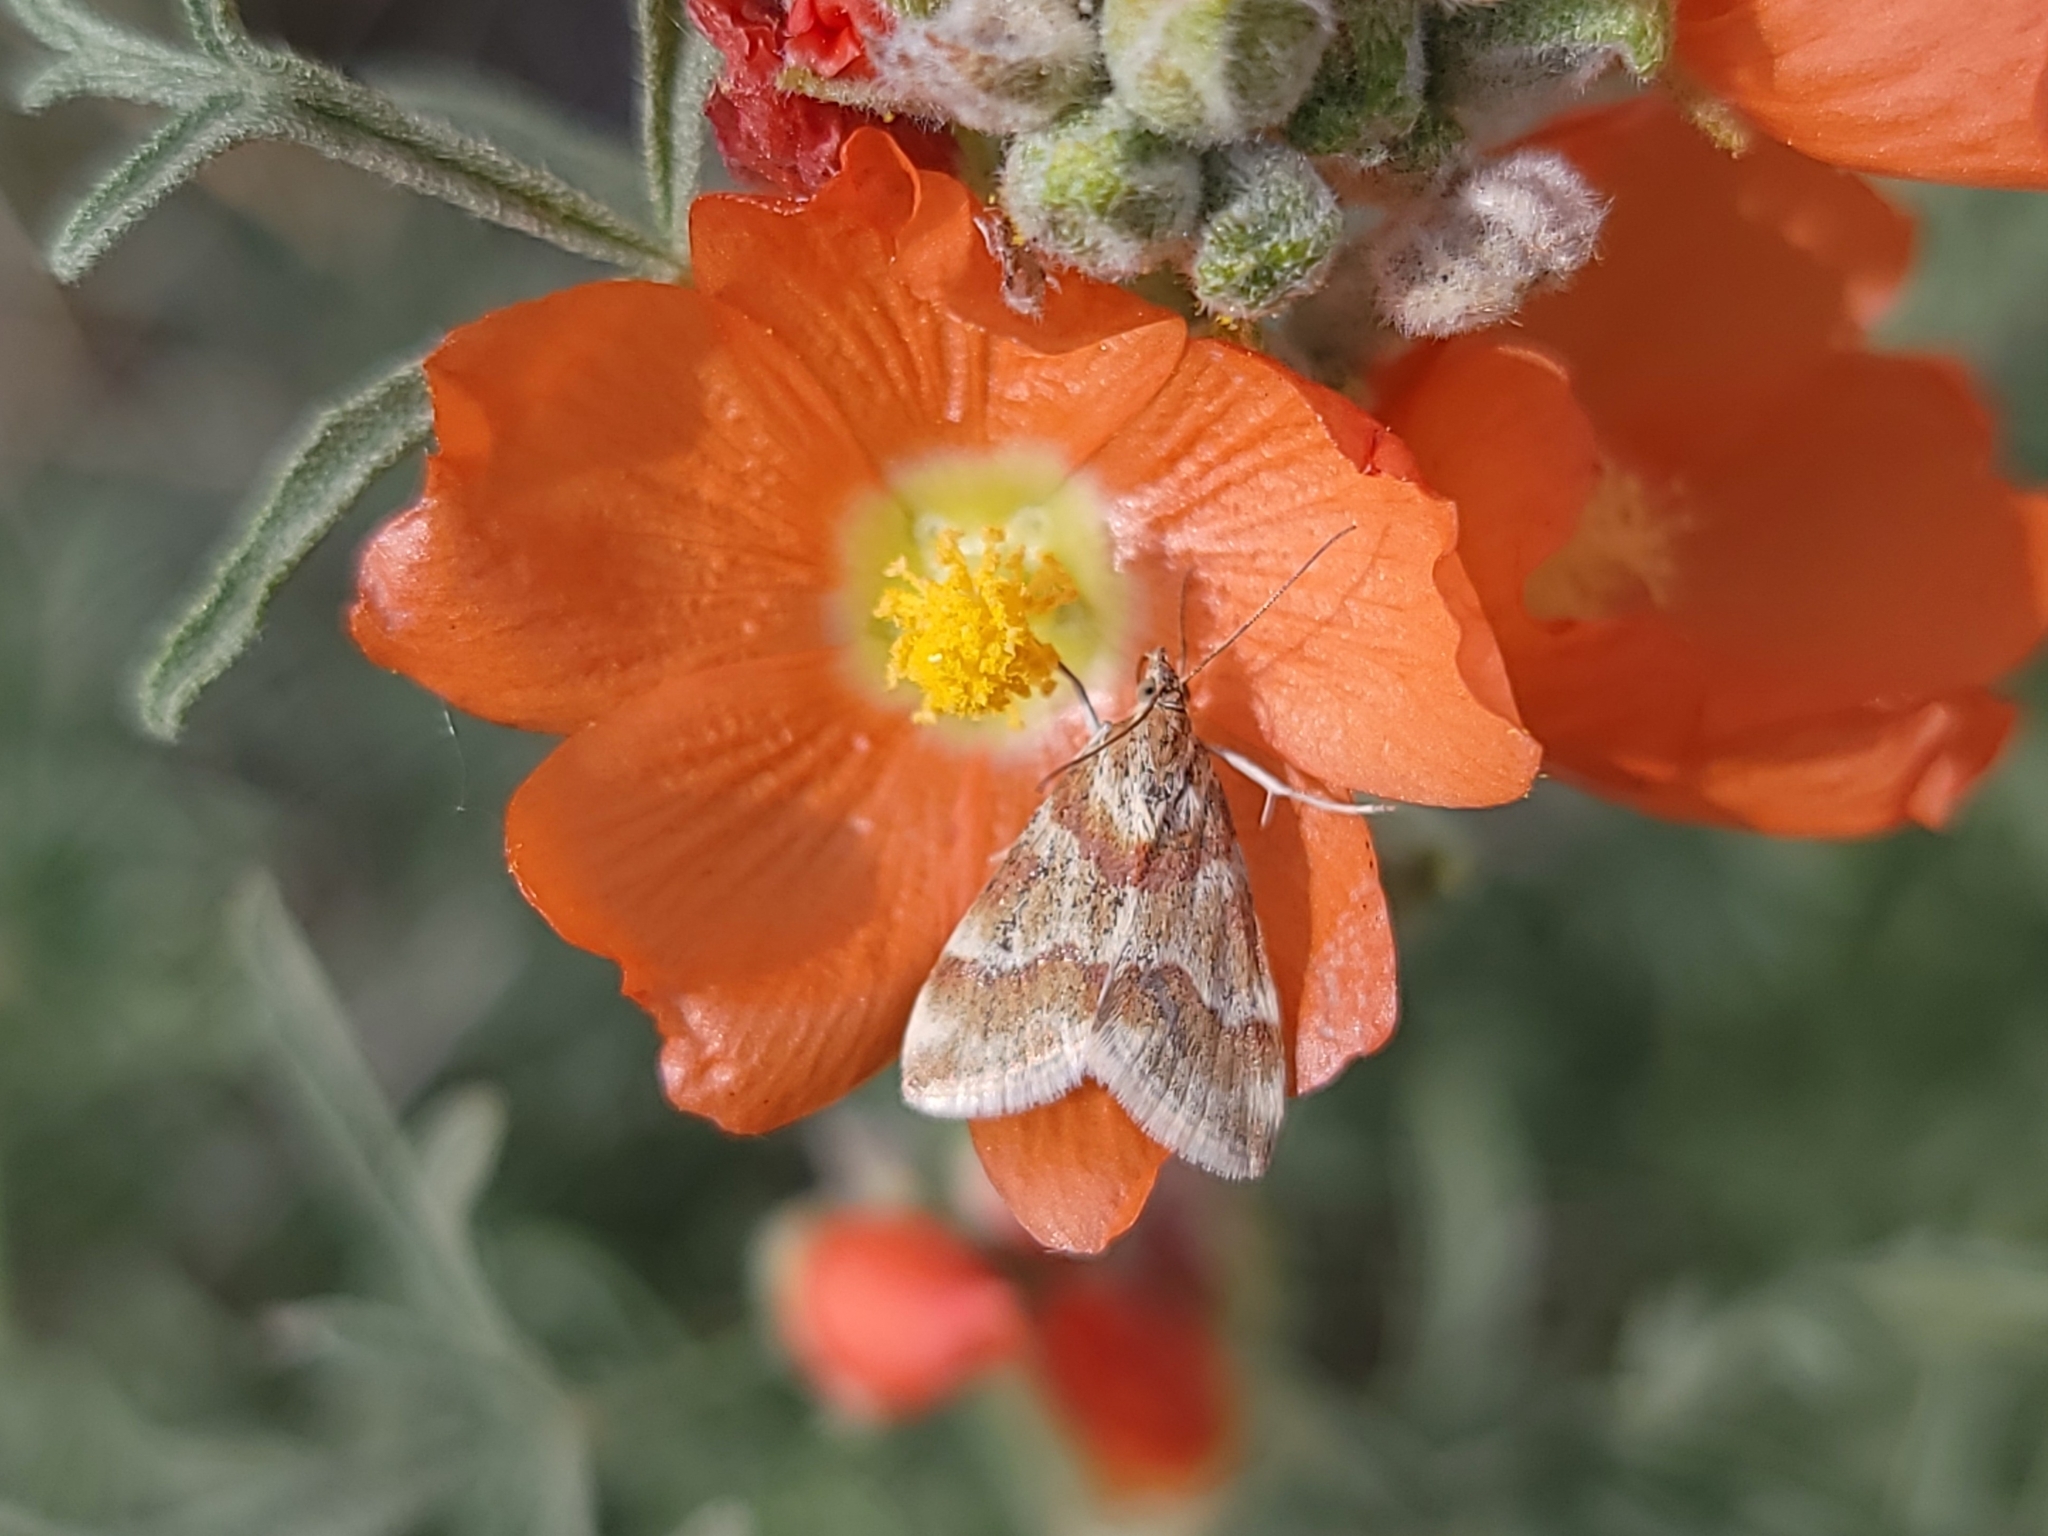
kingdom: Animalia
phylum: Arthropoda
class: Insecta
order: Lepidoptera
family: Crambidae
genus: Noctuelia
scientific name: Noctuelia Mimoschinia rufofascialis
